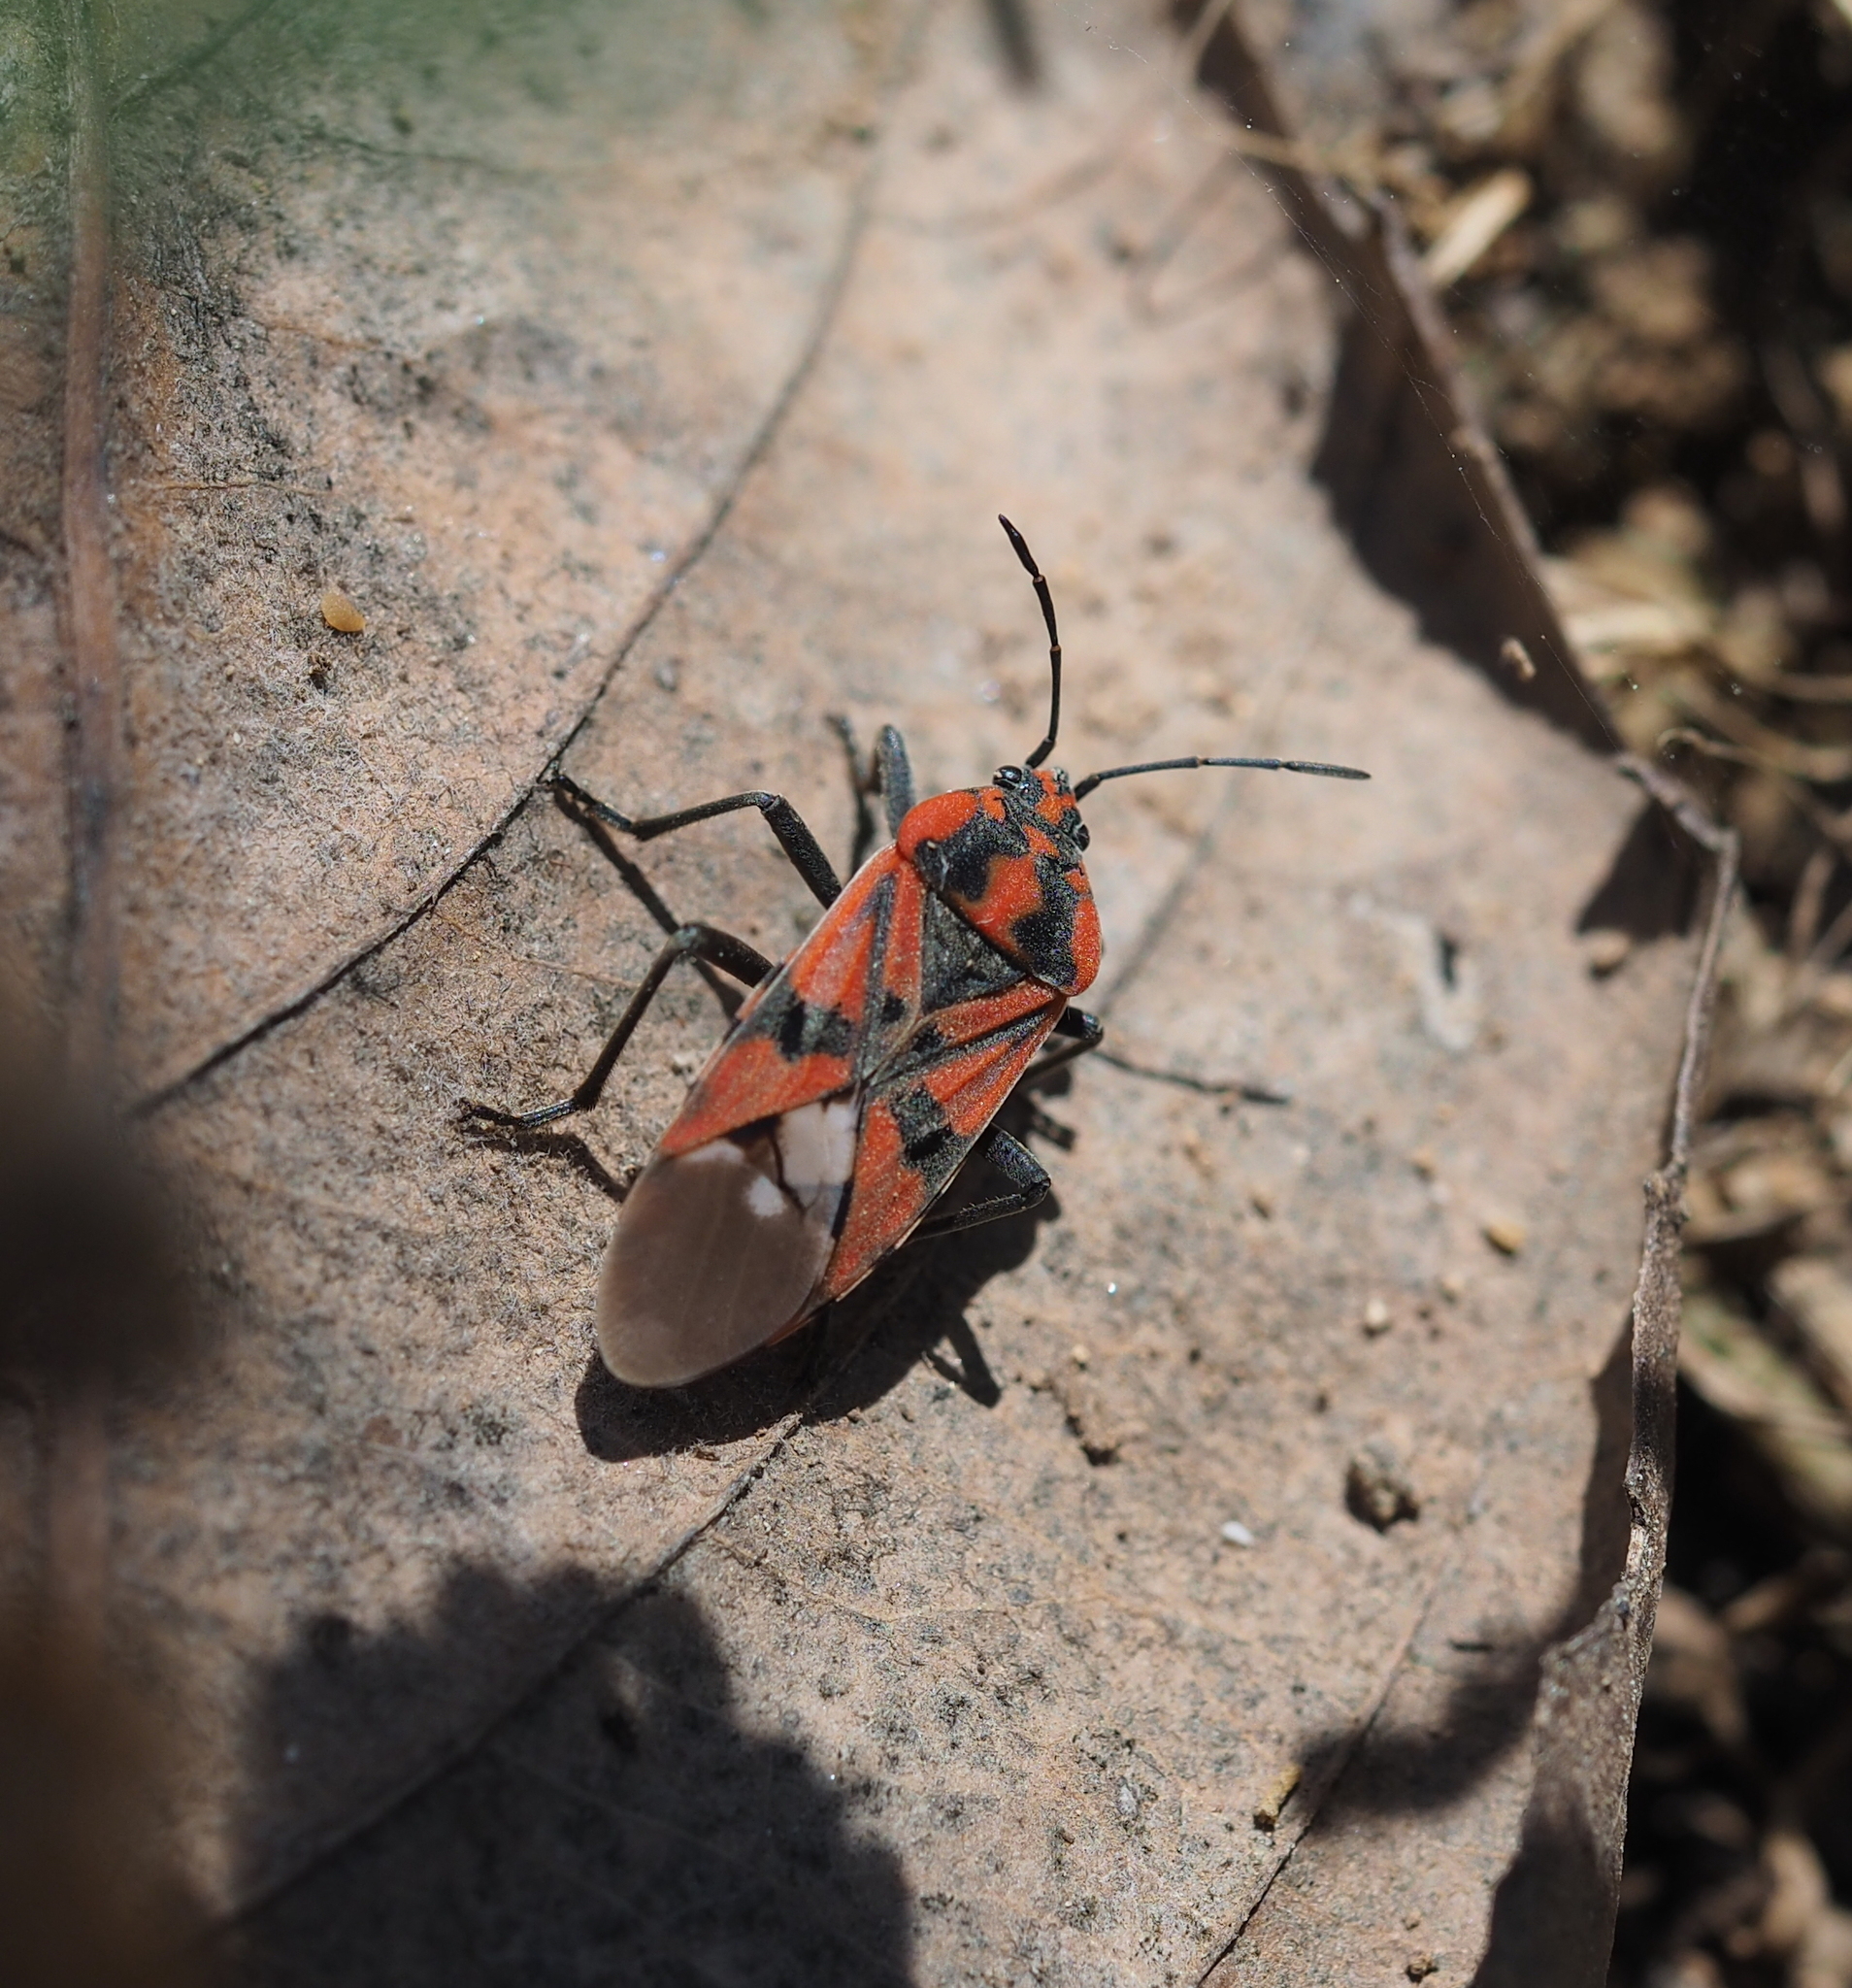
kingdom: Animalia
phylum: Arthropoda
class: Insecta
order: Hemiptera
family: Lygaeidae
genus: Spilostethus
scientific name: Spilostethus pandurus
